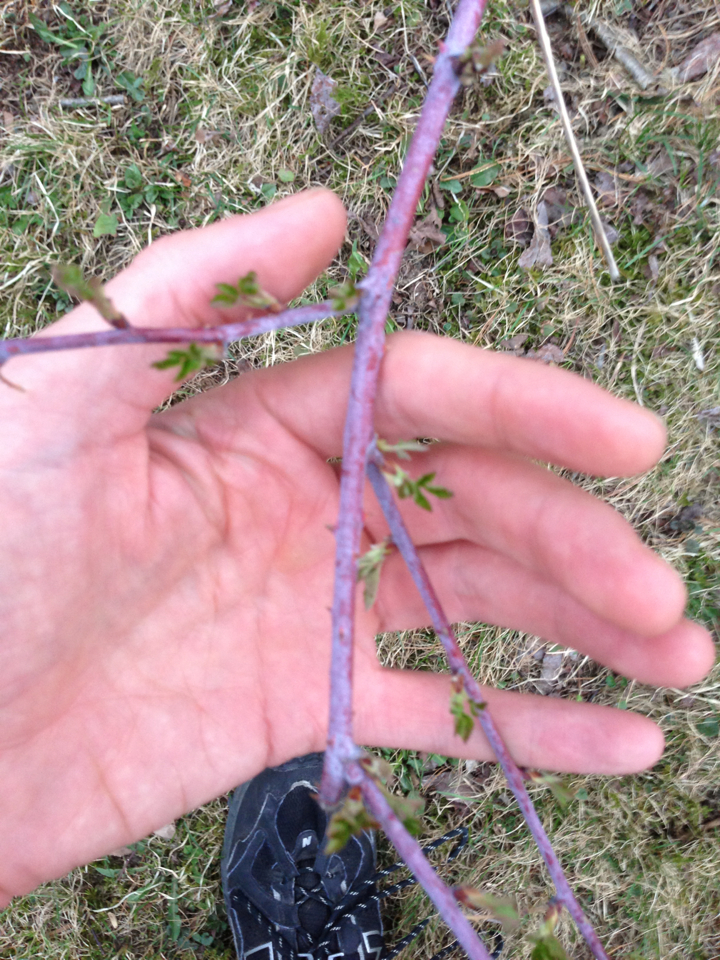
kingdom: Plantae
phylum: Tracheophyta
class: Magnoliopsida
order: Rosales
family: Rosaceae
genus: Rubus
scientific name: Rubus occidentalis
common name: Black raspberry
